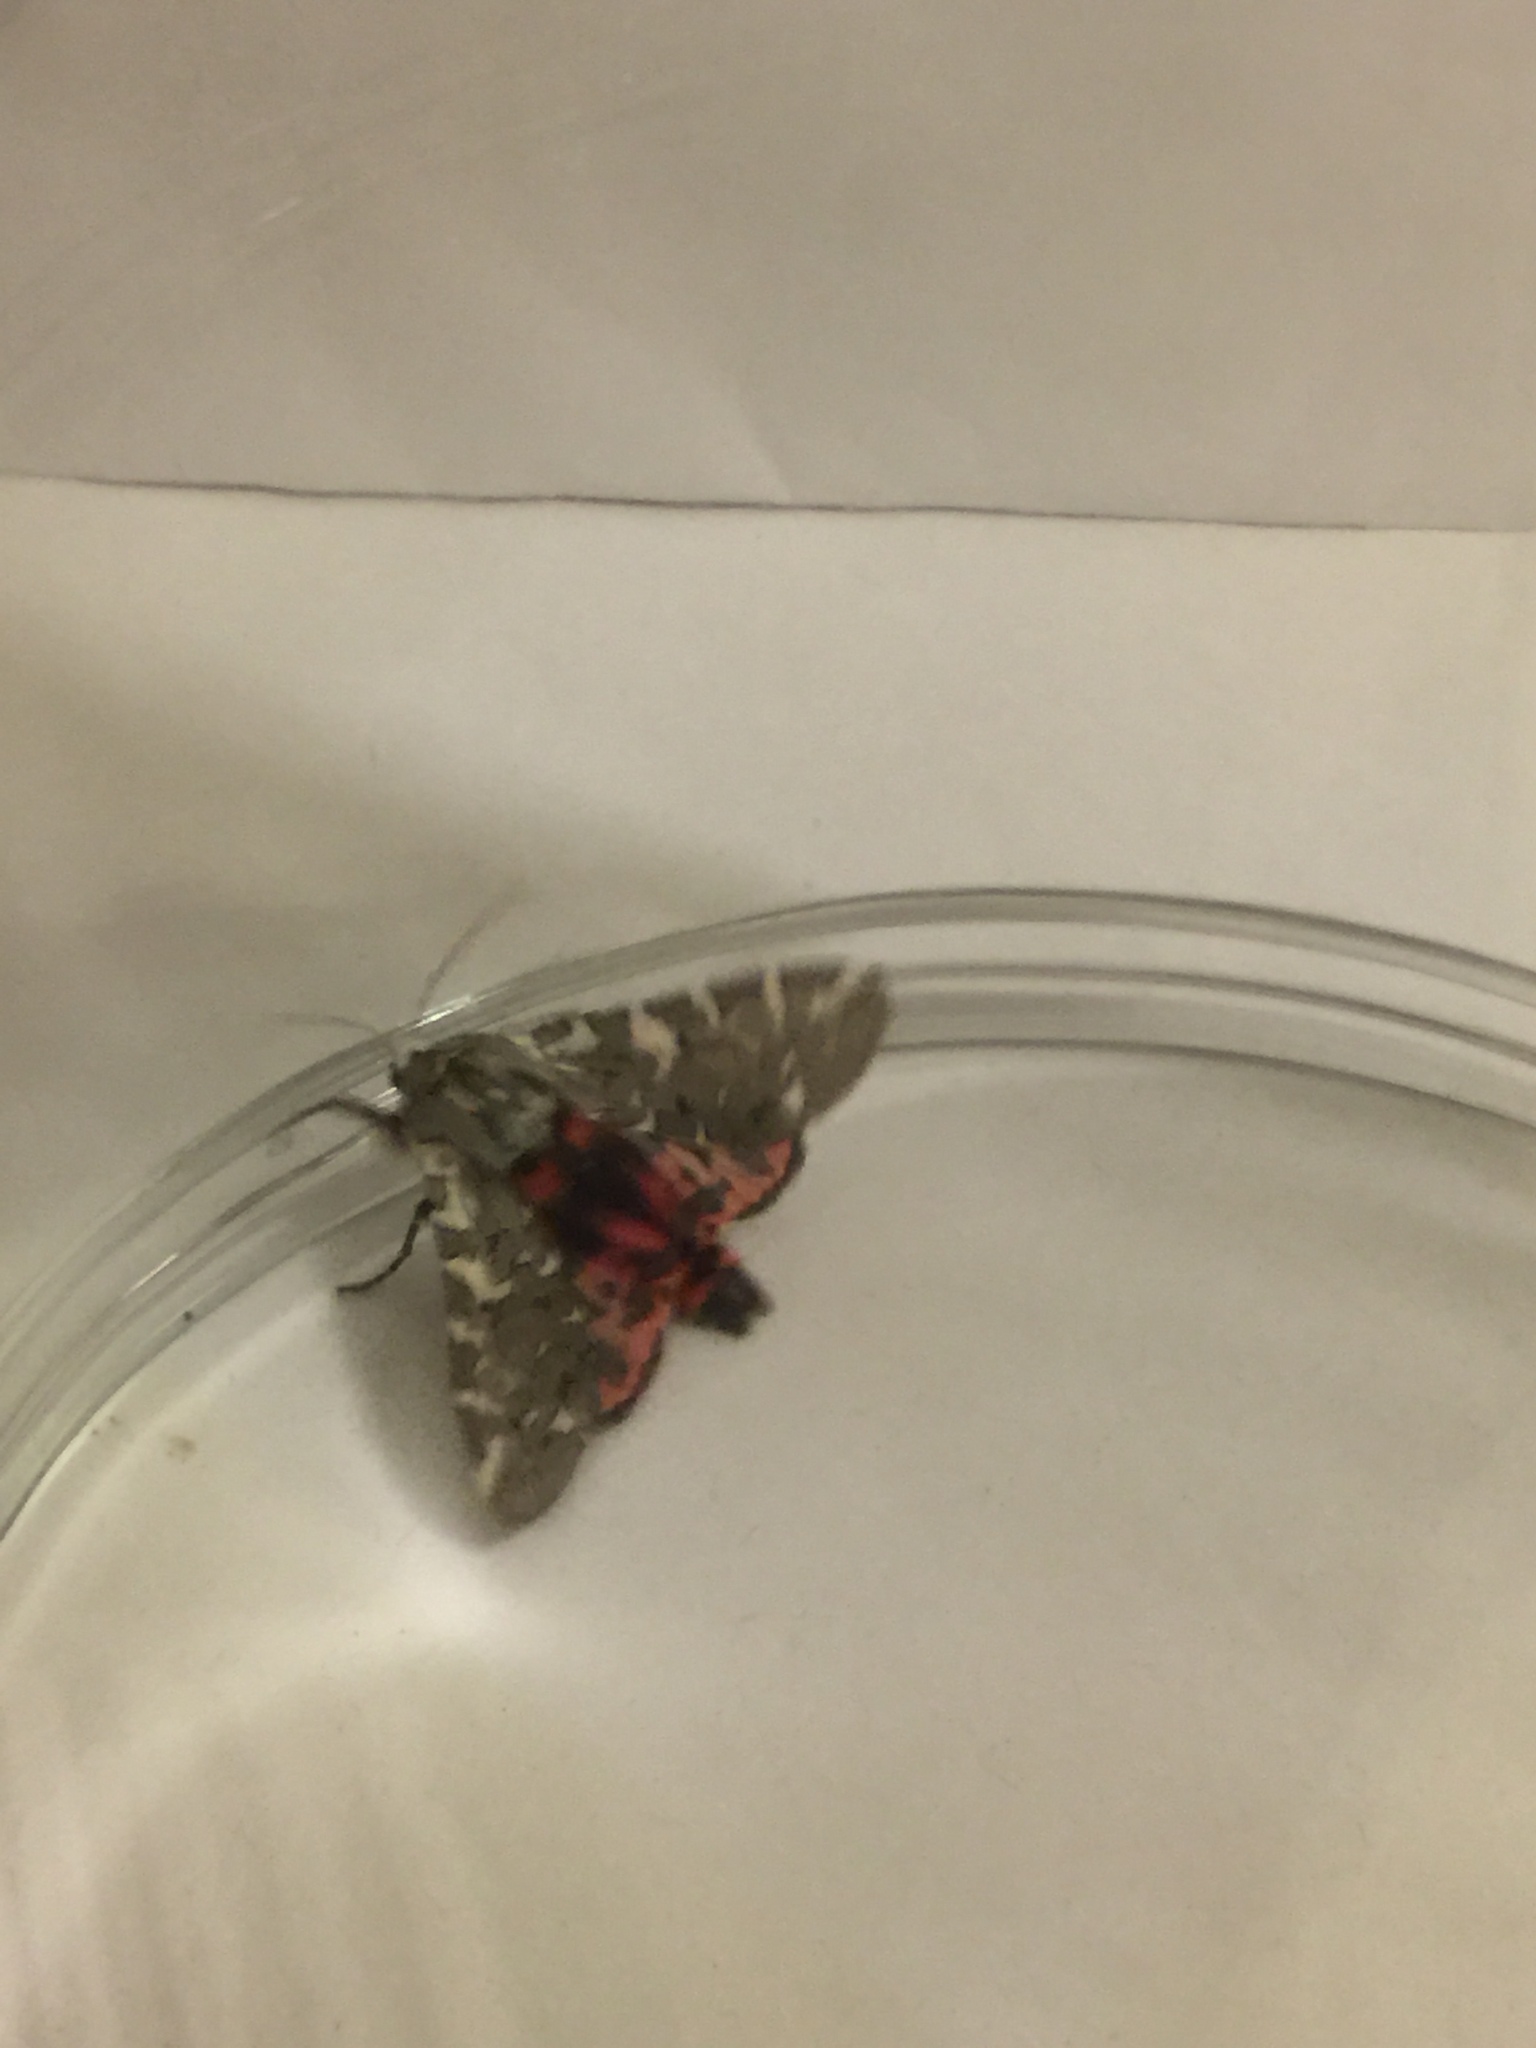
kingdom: Animalia
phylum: Arthropoda
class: Insecta
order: Lepidoptera
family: Erebidae
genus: Arachnis
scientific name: Arachnis picta
